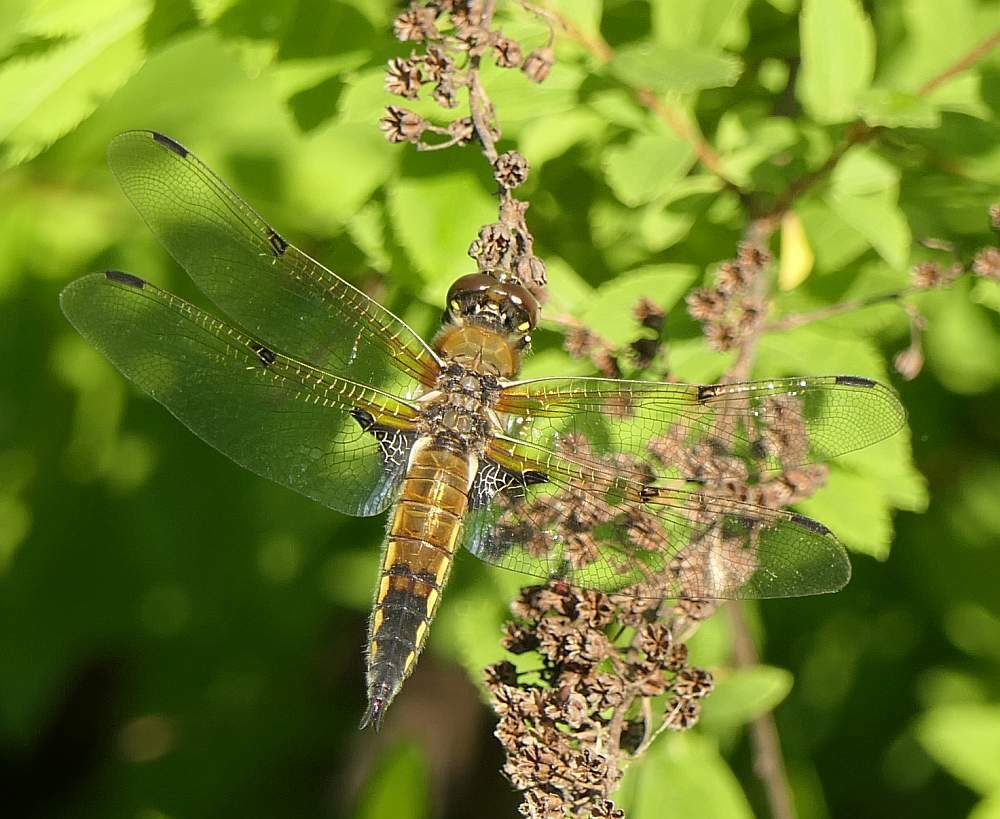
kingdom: Animalia
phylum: Arthropoda
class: Insecta
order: Odonata
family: Libellulidae
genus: Libellula
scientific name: Libellula quadrimaculata
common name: Four-spotted chaser
